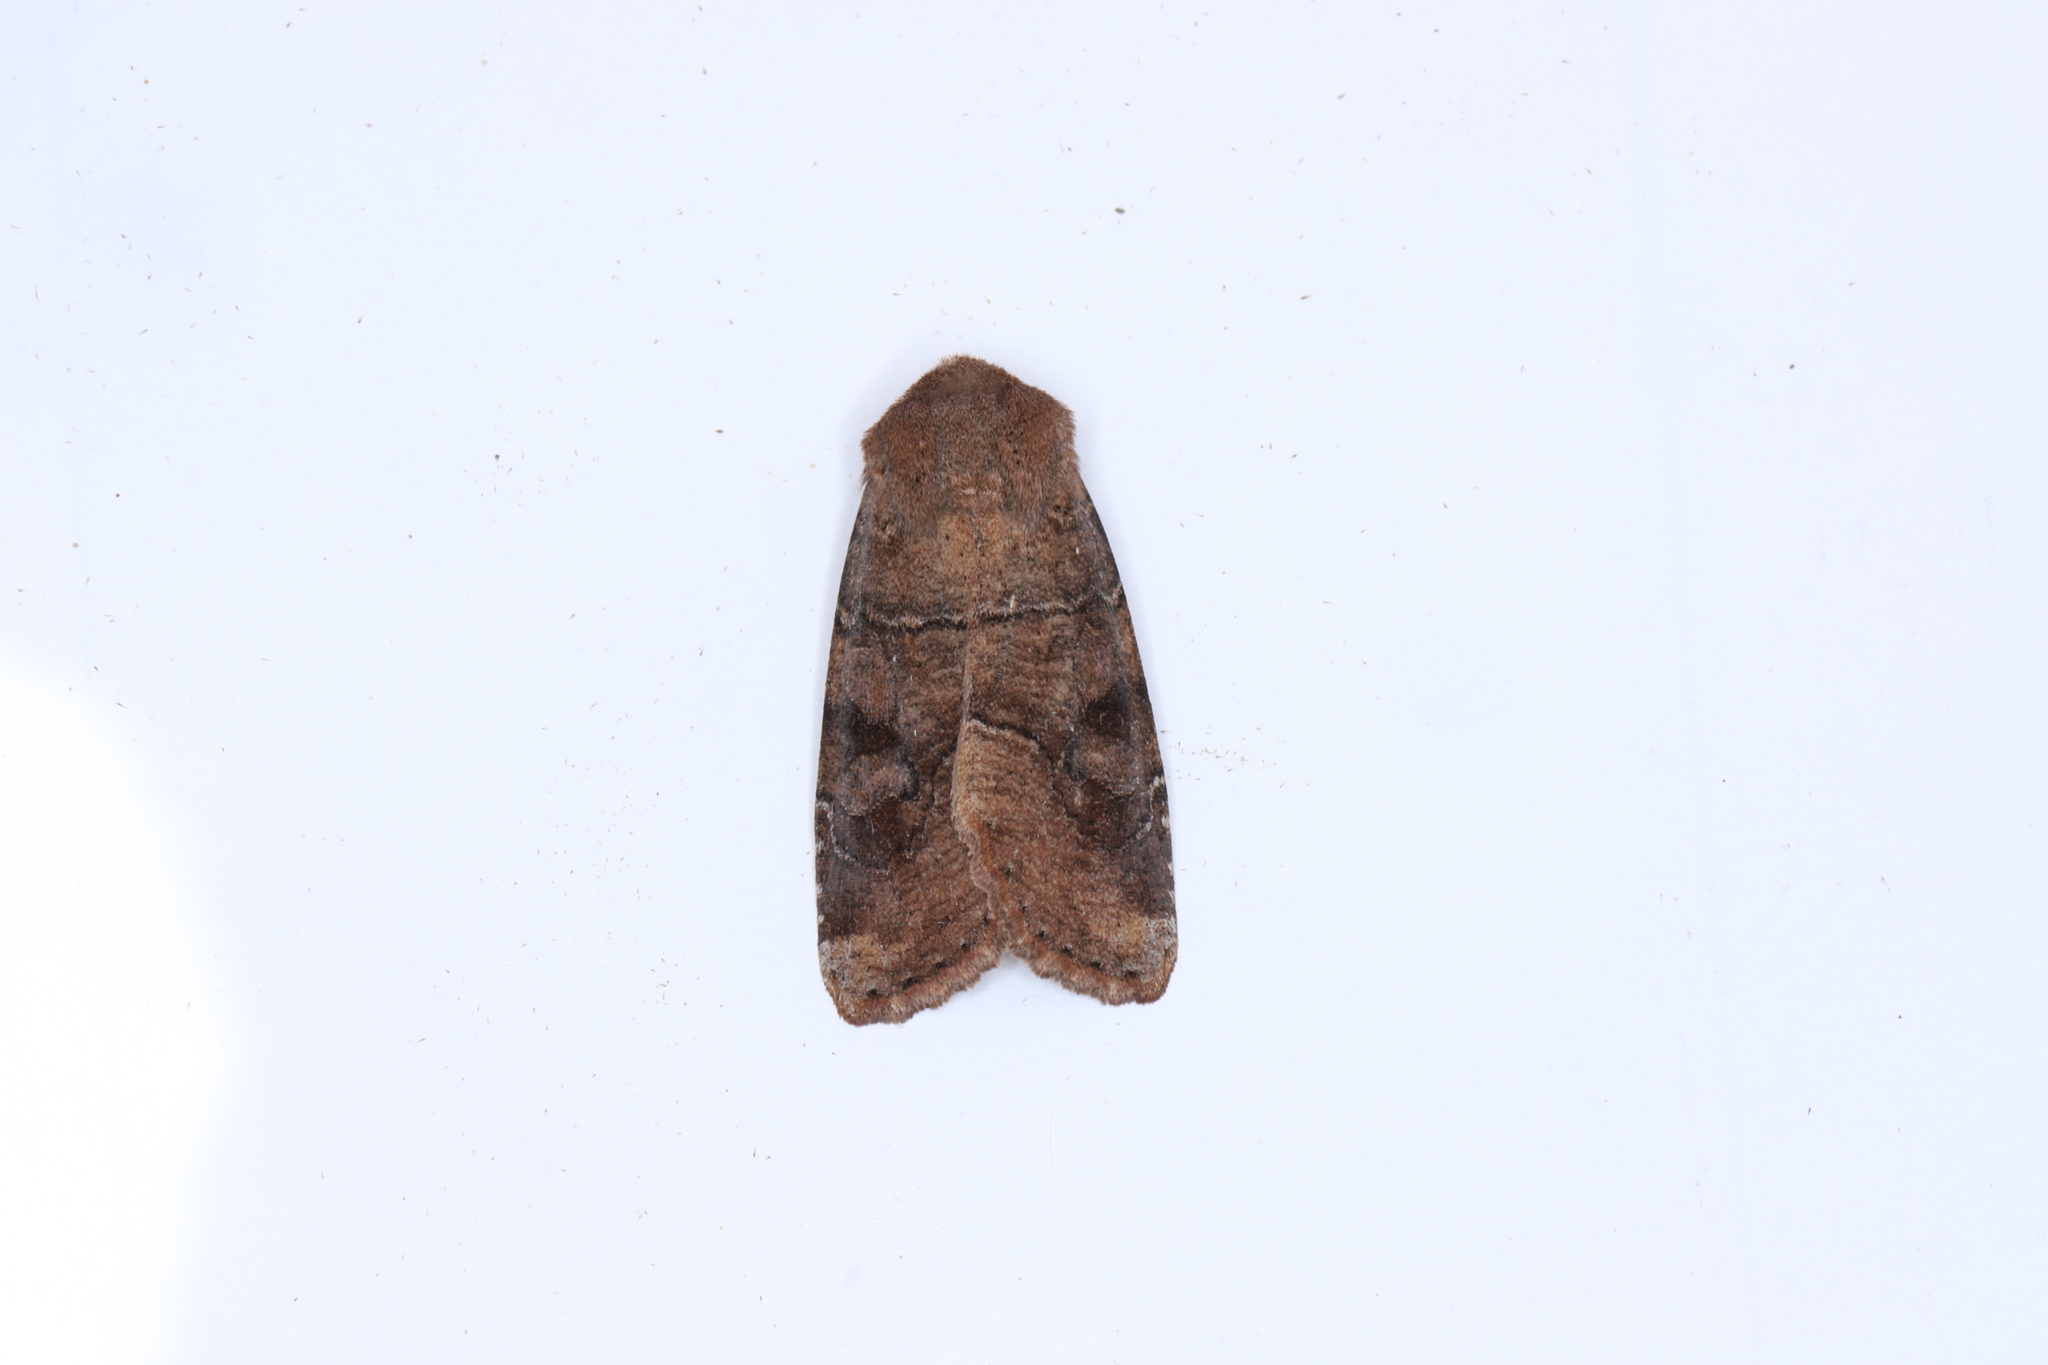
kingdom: Animalia
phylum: Arthropoda
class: Insecta
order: Lepidoptera
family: Noctuidae
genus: Crocigrapha
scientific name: Crocigrapha normani
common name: Norman's quaker
